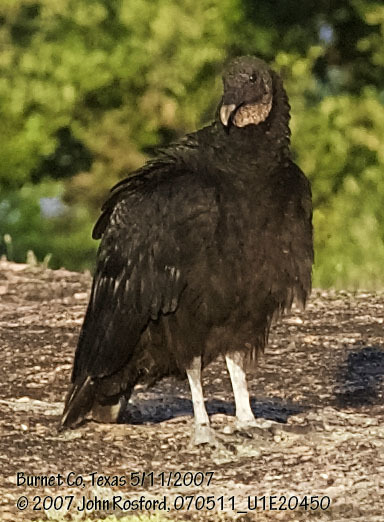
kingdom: Animalia
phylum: Chordata
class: Aves
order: Accipitriformes
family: Cathartidae
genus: Coragyps
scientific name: Coragyps atratus
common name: Black vulture
